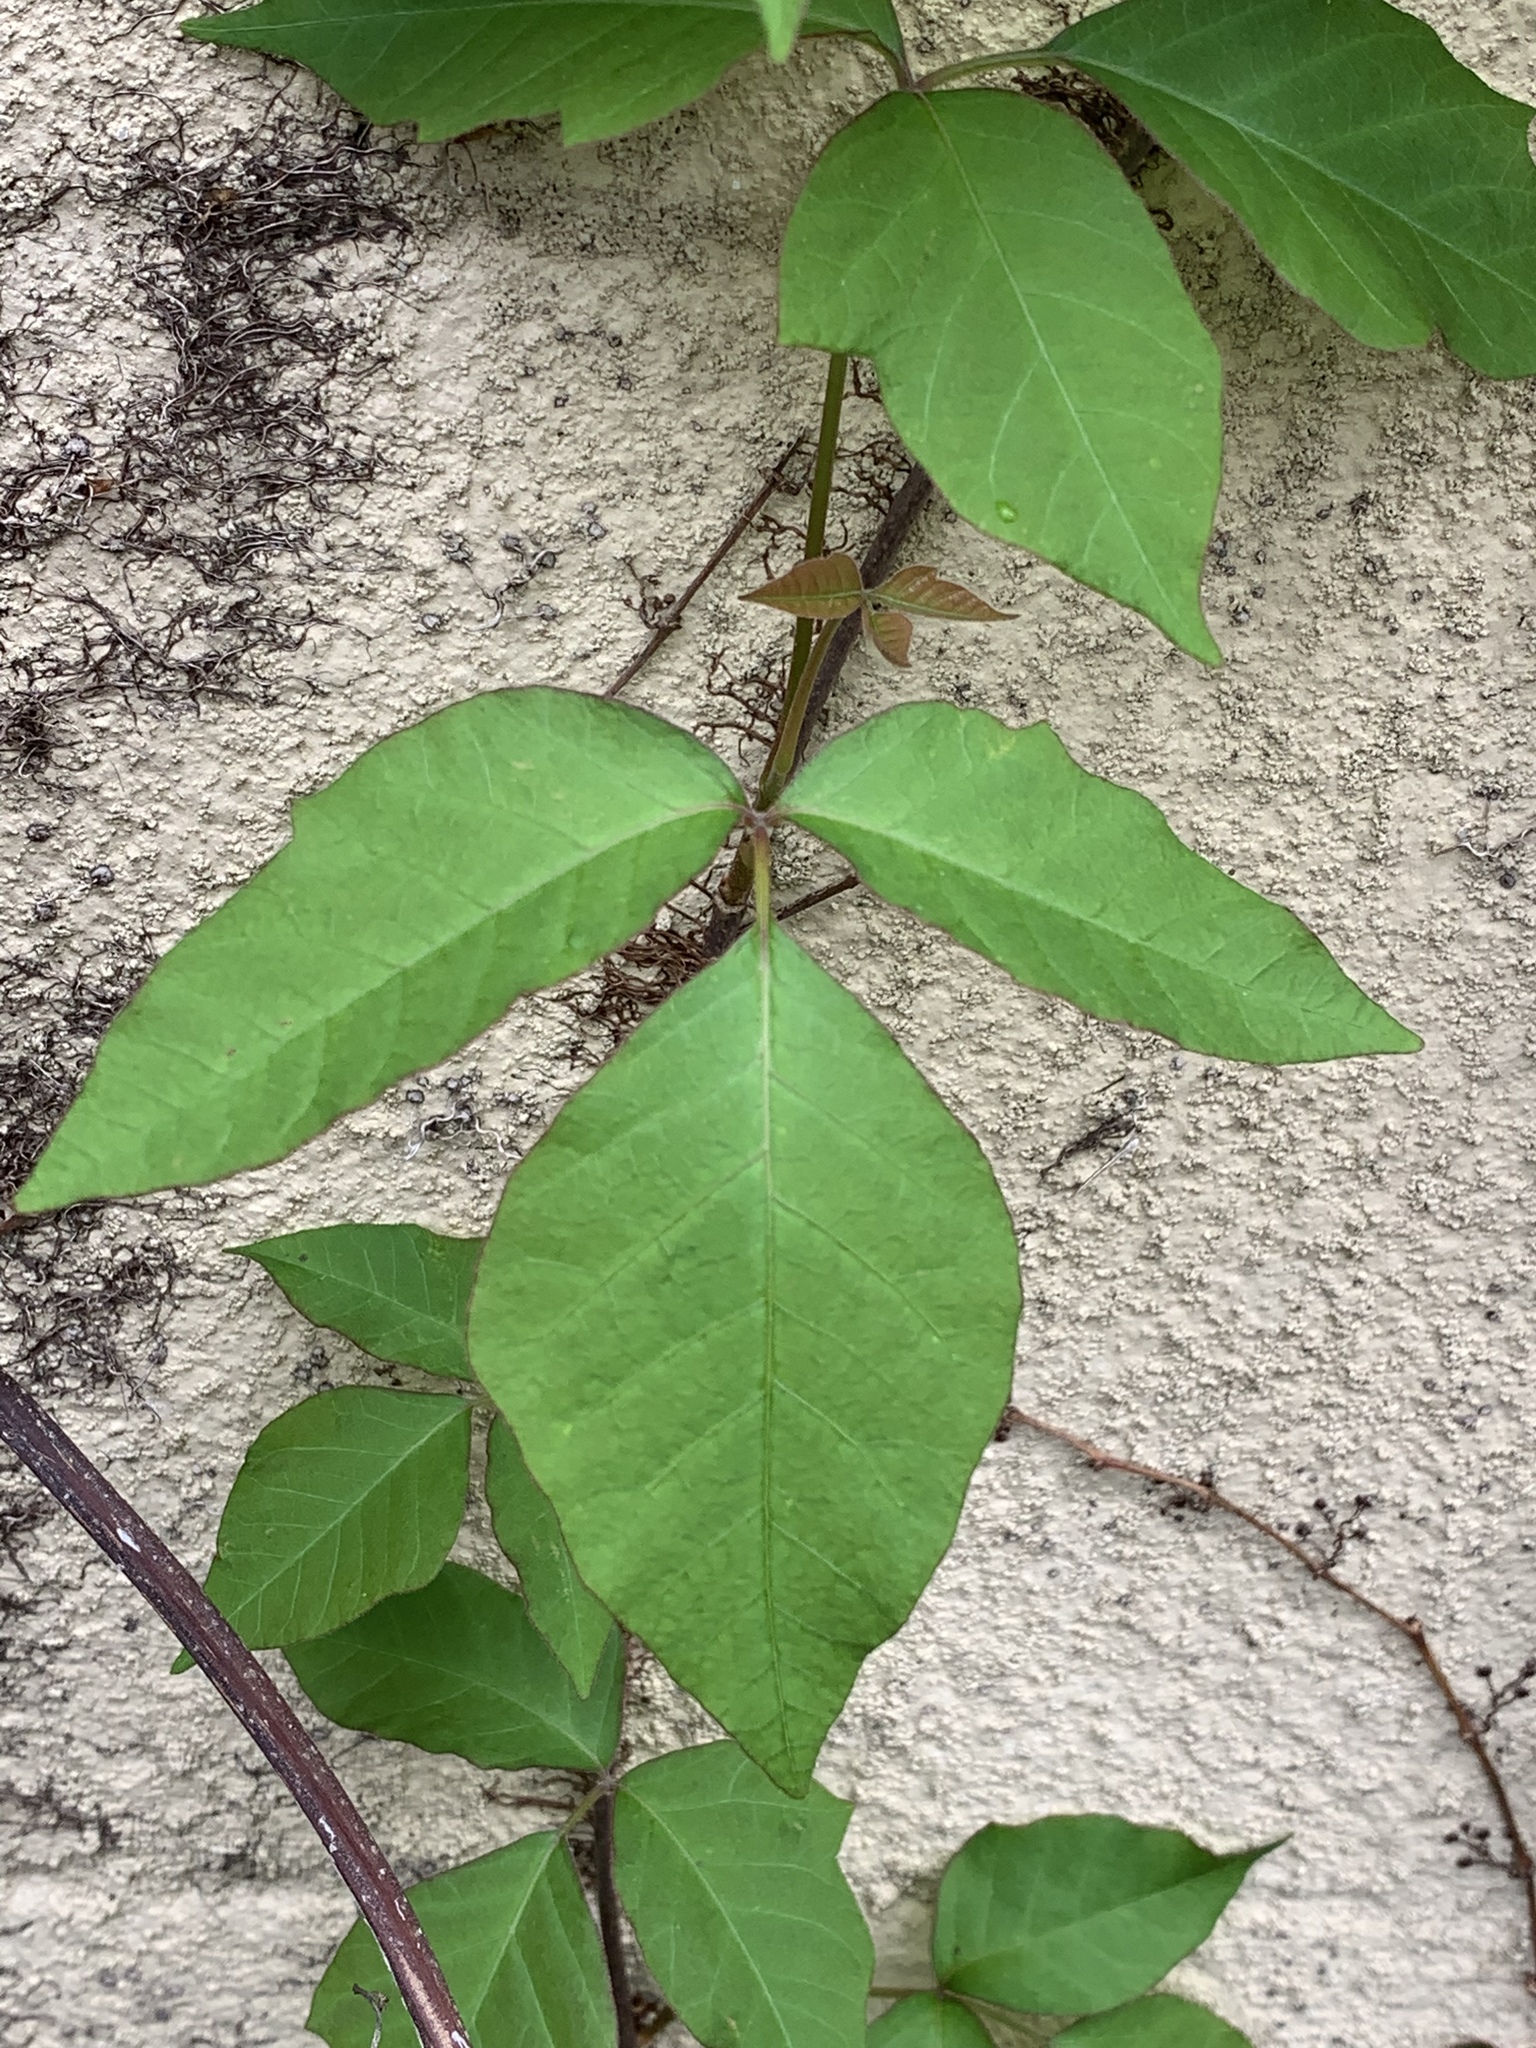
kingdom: Plantae
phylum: Tracheophyta
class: Magnoliopsida
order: Sapindales
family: Anacardiaceae
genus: Toxicodendron
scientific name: Toxicodendron radicans
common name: Poison ivy
